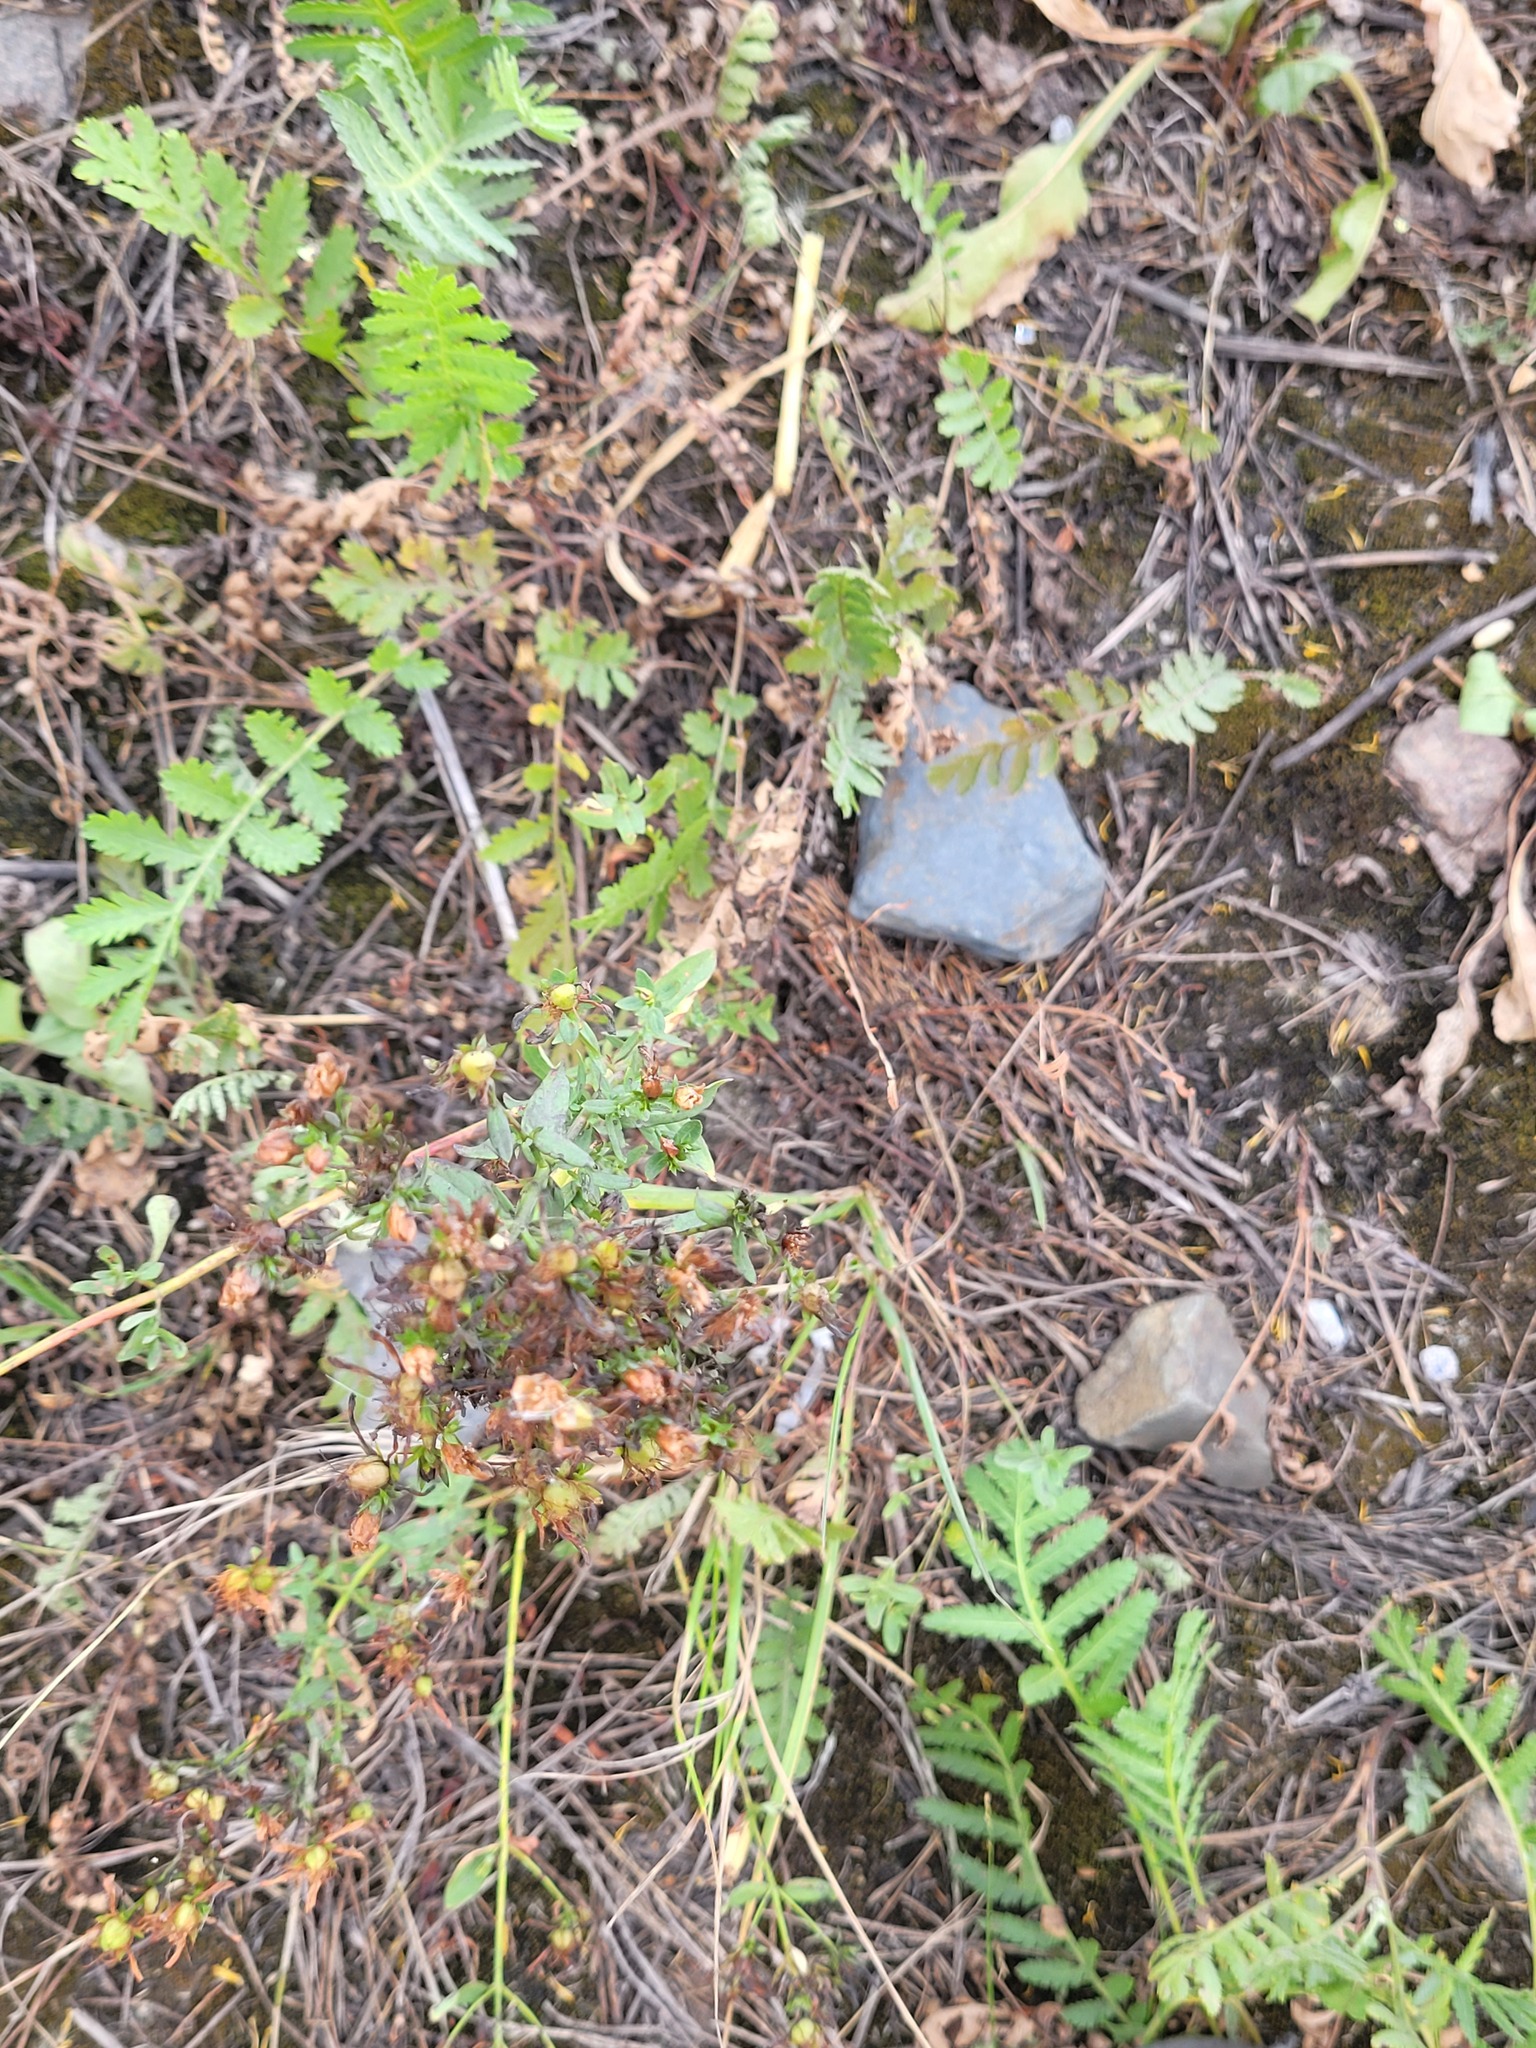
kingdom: Plantae
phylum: Tracheophyta
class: Magnoliopsida
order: Malpighiales
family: Hypericaceae
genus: Hypericum
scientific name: Hypericum perforatum
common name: Common st. johnswort
